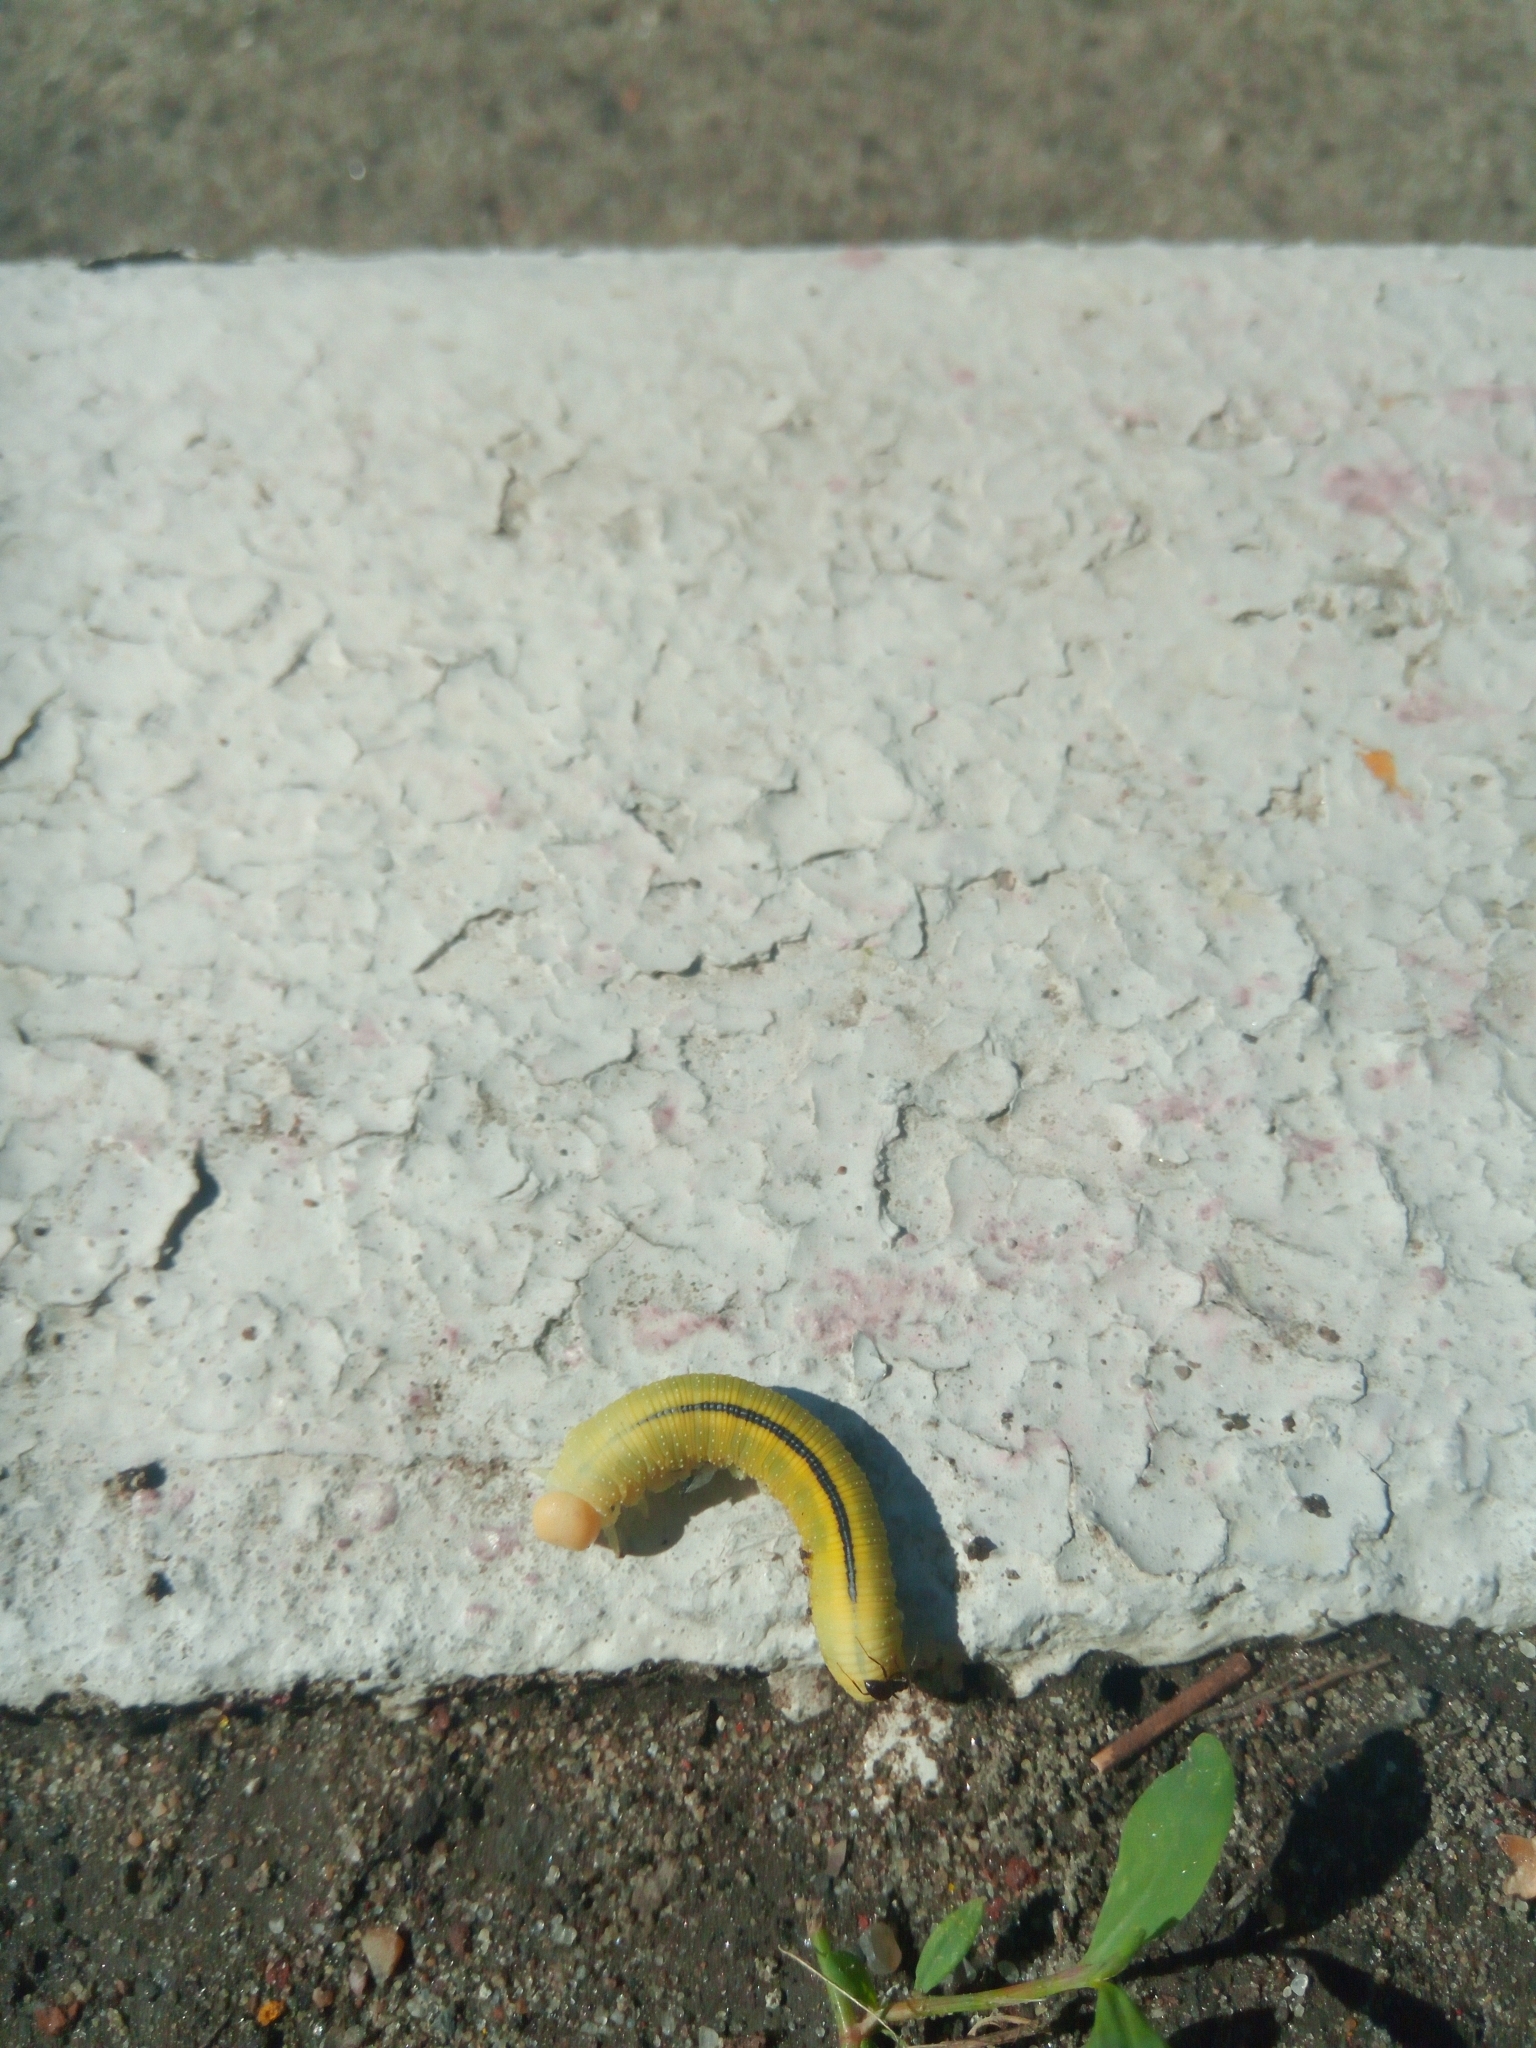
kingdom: Animalia
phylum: Arthropoda
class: Insecta
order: Hymenoptera
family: Cimbicidae
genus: Cimbex
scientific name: Cimbex femoratus
